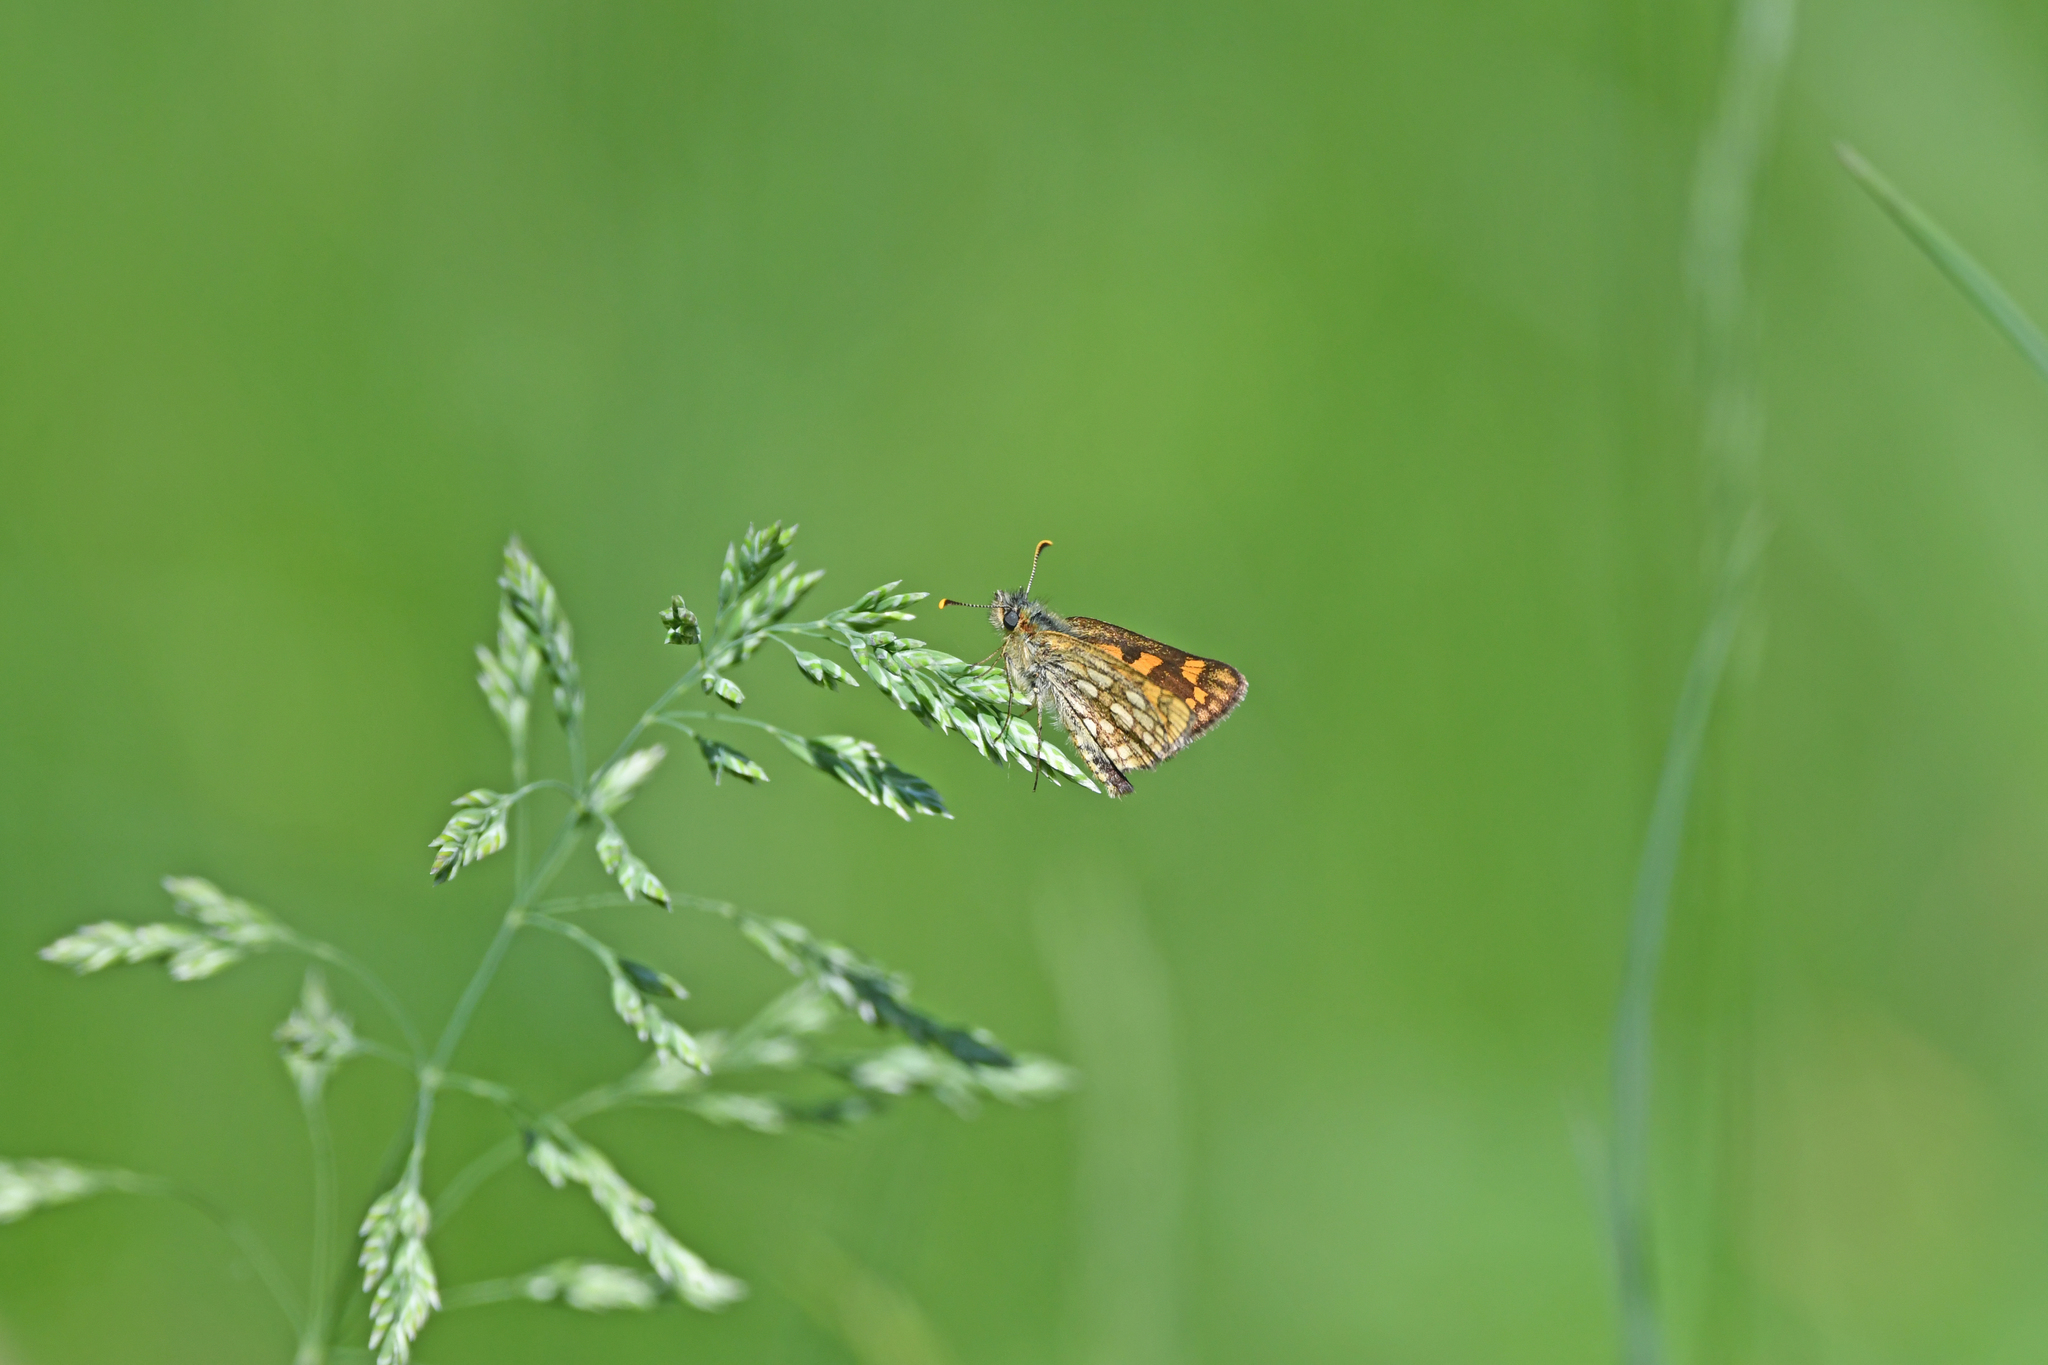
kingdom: Animalia
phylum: Arthropoda
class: Insecta
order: Lepidoptera
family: Hesperiidae
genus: Carterocephalus
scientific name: Carterocephalus palaemon
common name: Chequered skipper
